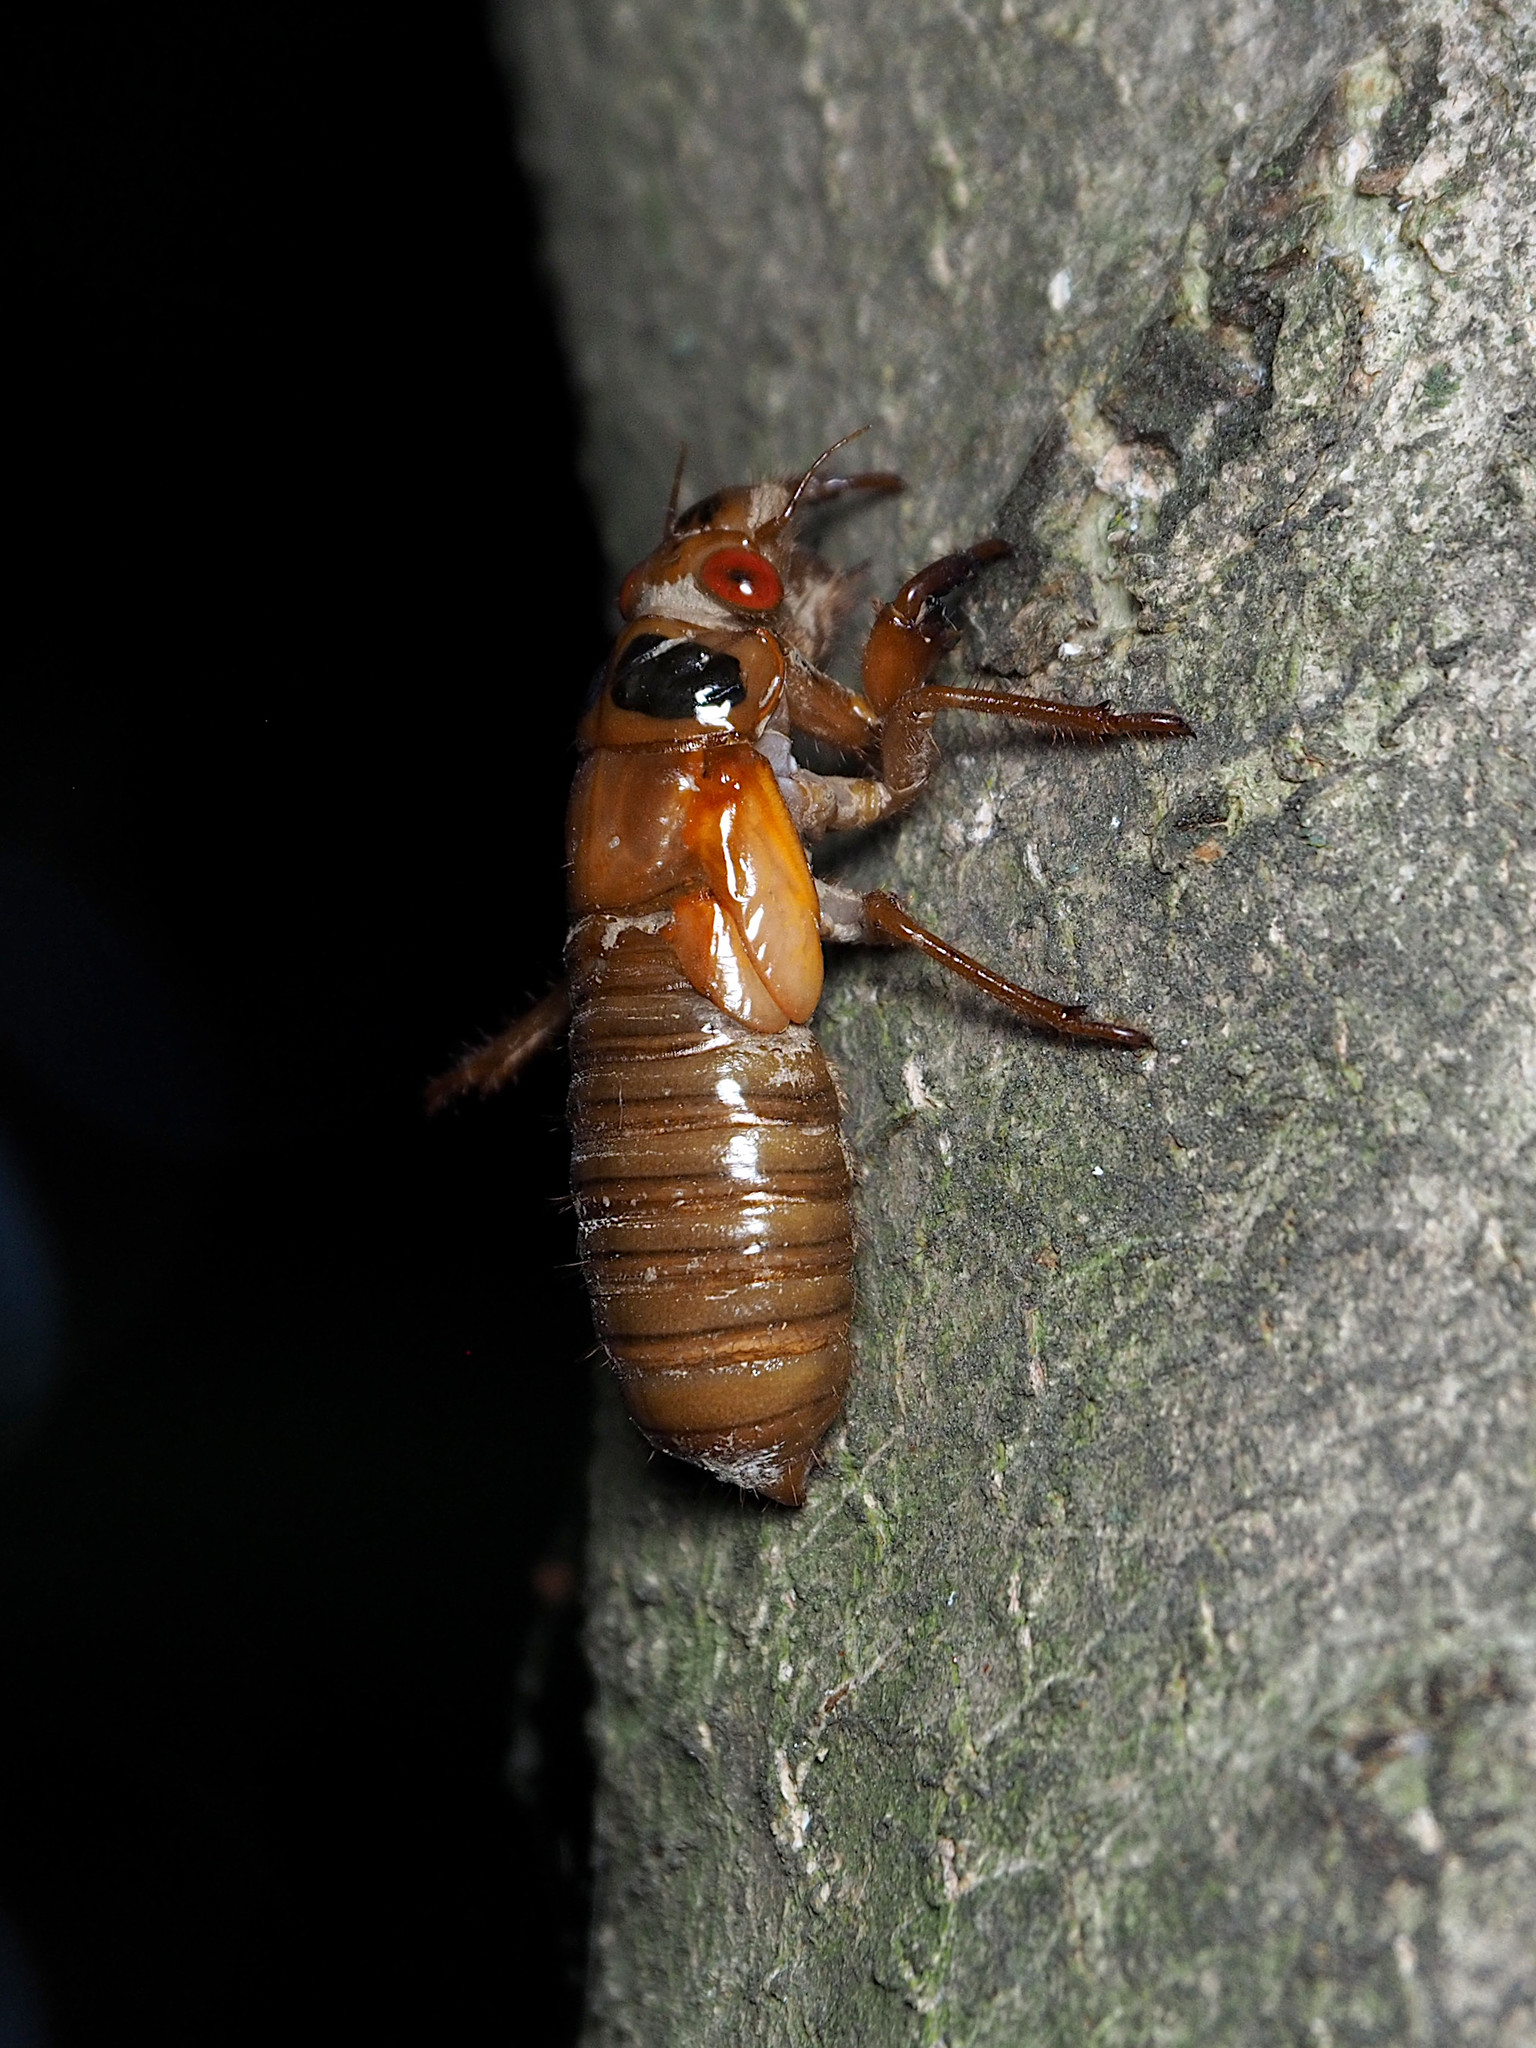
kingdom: Animalia
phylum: Arthropoda
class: Insecta
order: Hemiptera
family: Cicadidae
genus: Magicicada
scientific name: Magicicada
